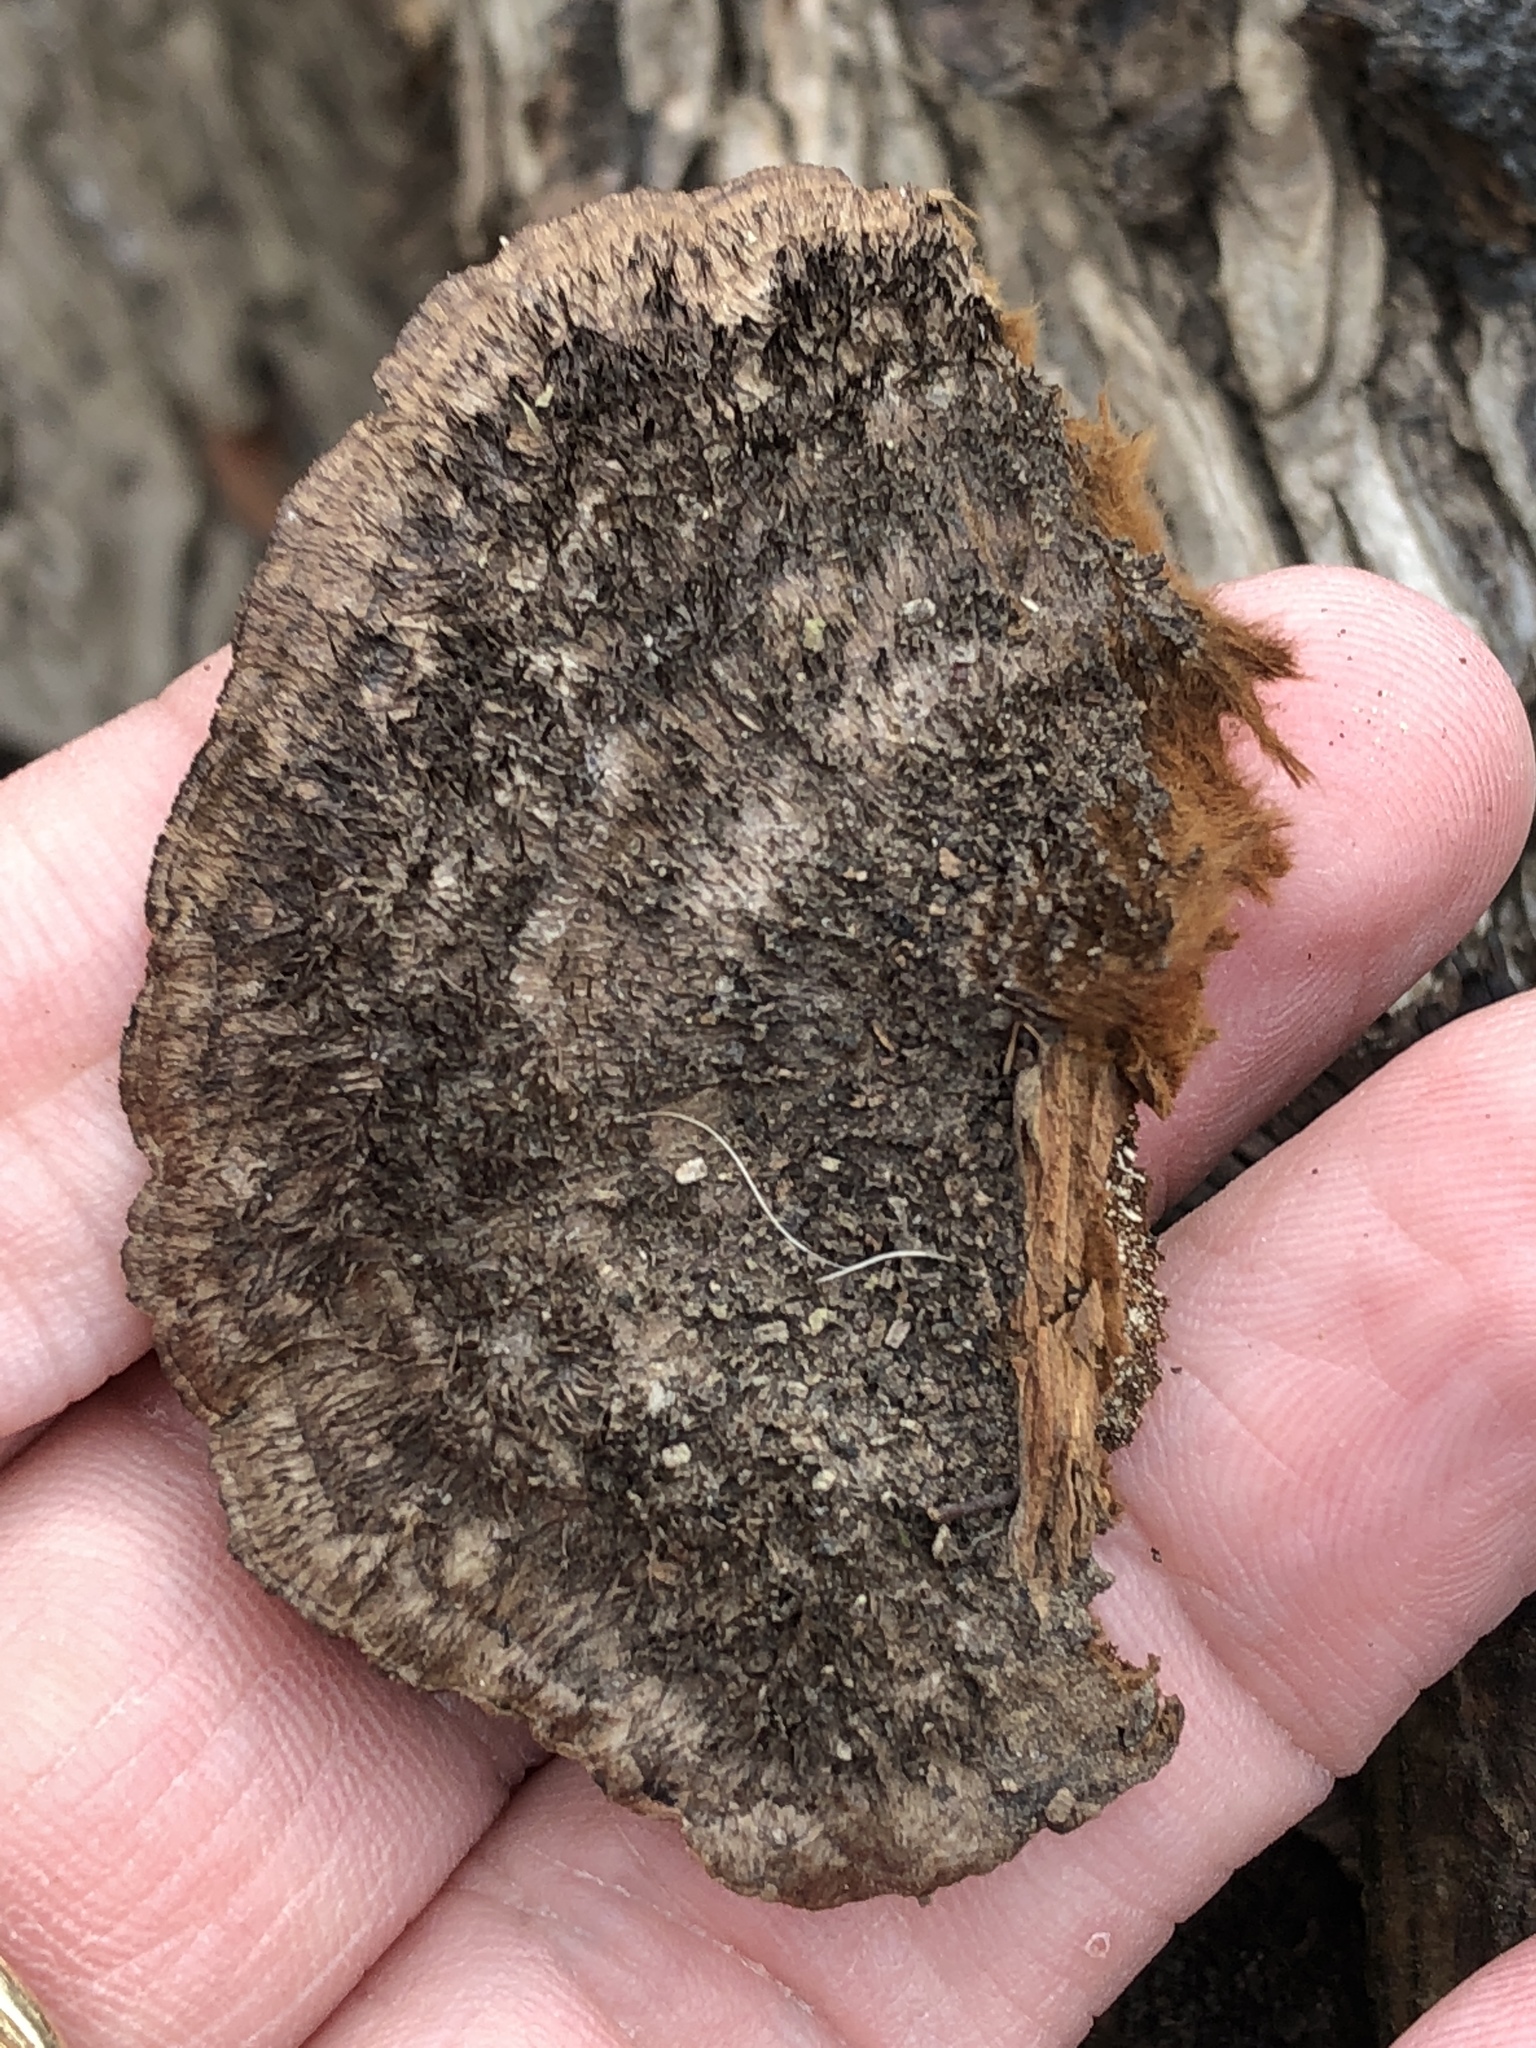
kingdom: Fungi
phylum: Basidiomycota
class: Agaricomycetes
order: Polyporales
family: Cerrenaceae
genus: Cerrena
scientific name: Cerrena hydnoides
